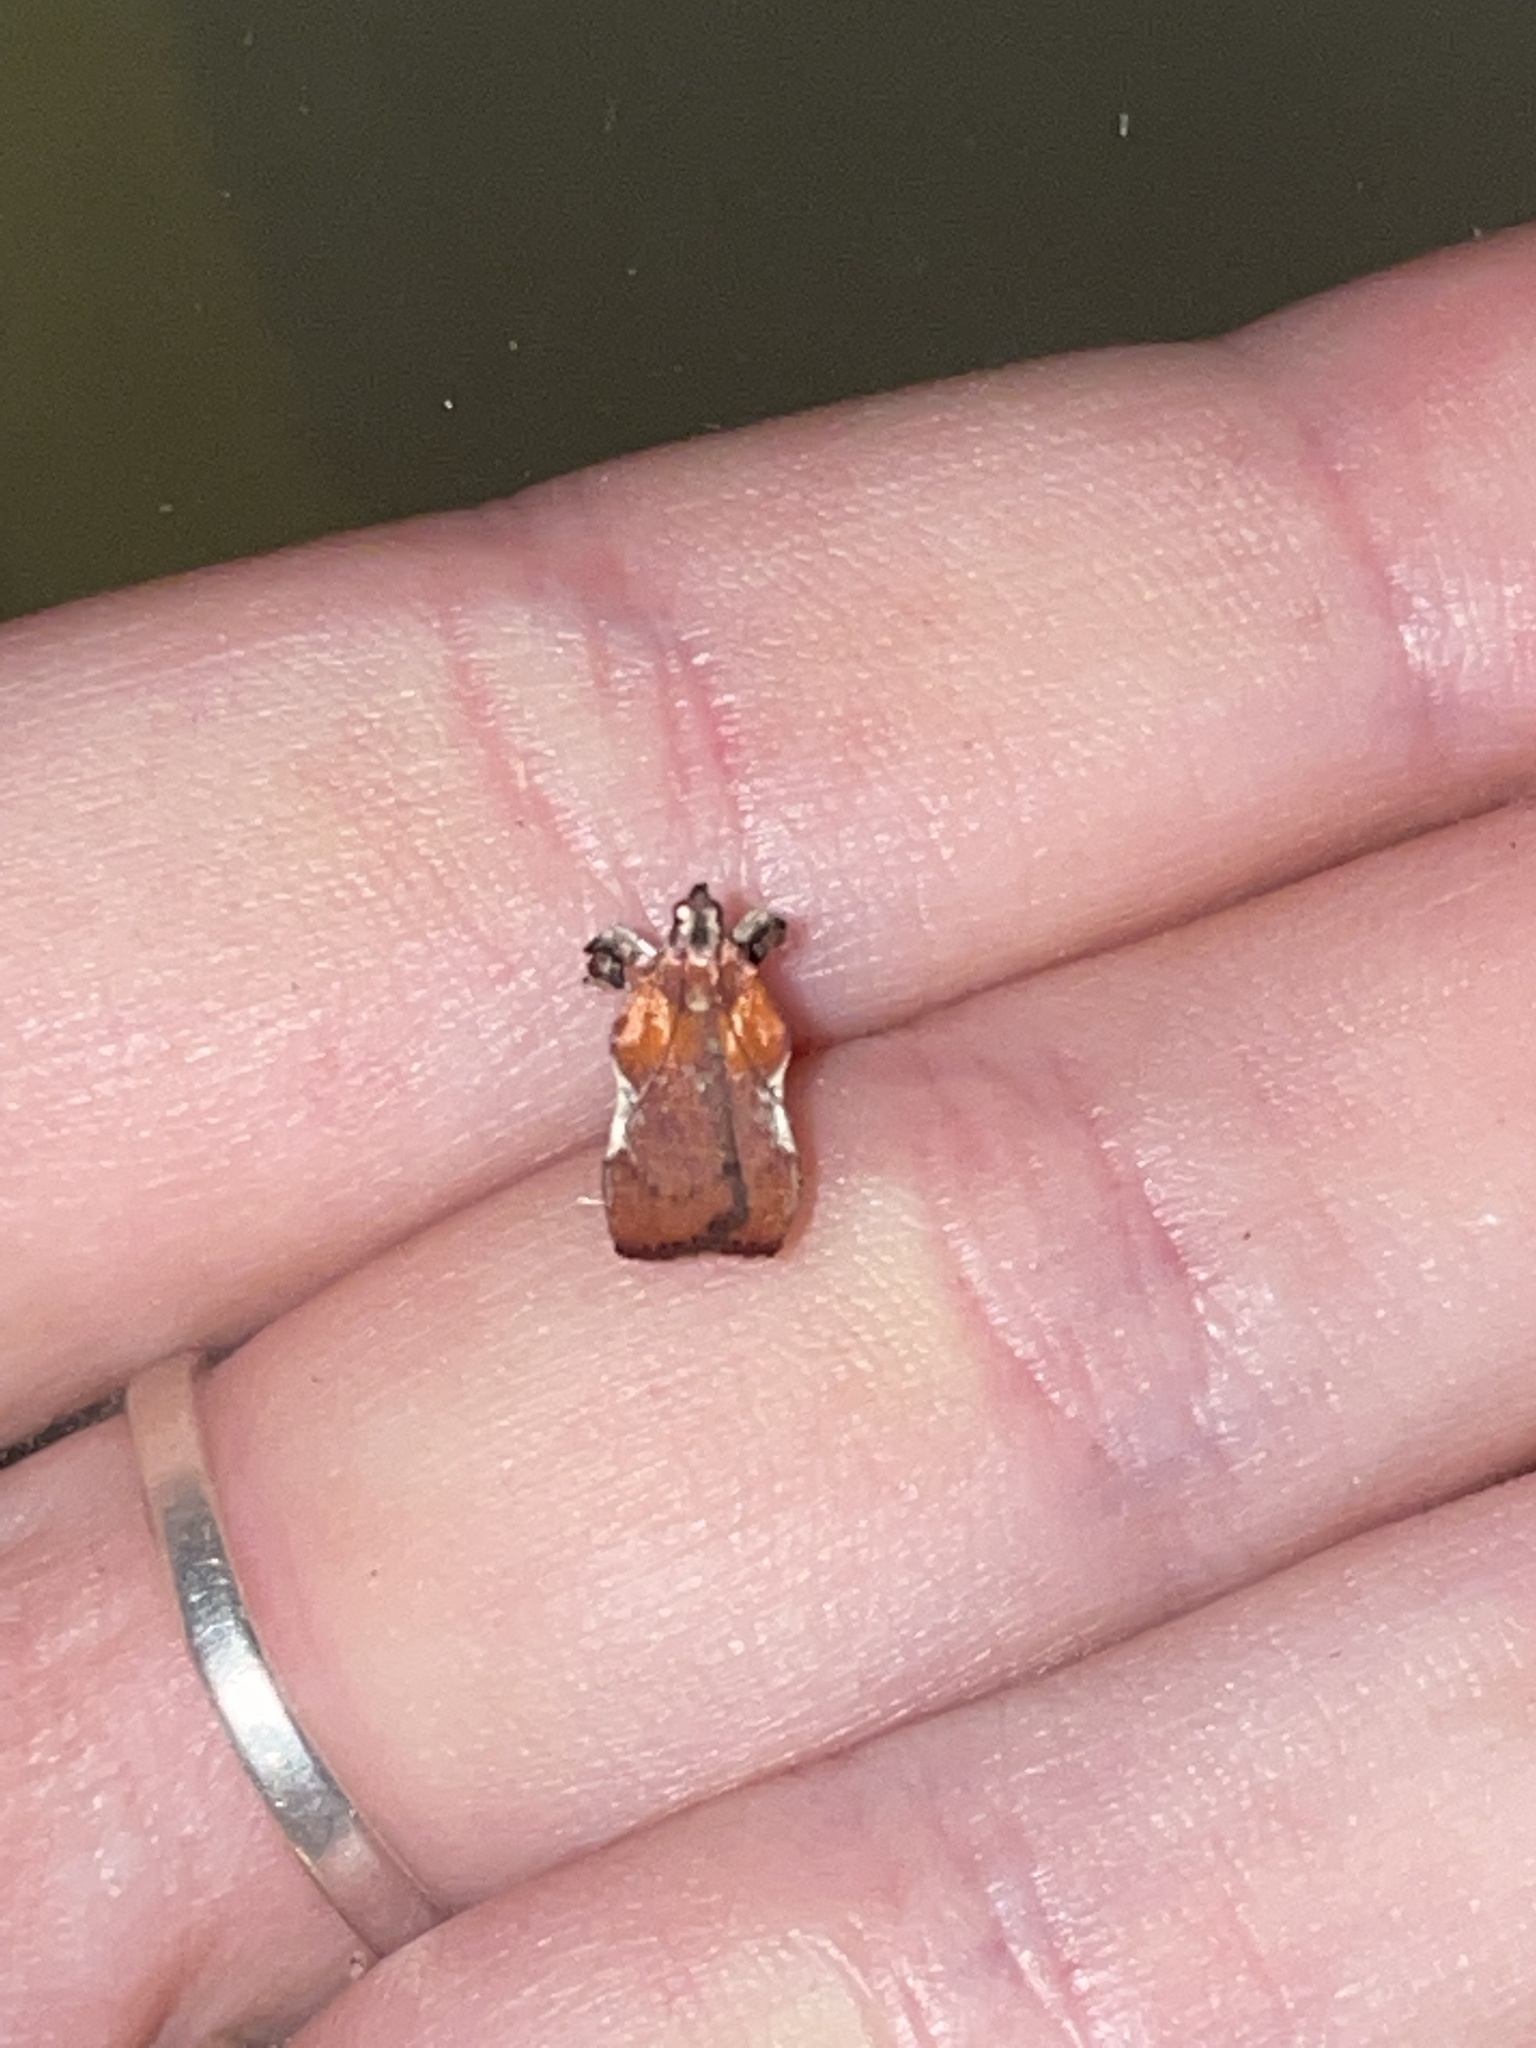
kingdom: Animalia
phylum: Arthropoda
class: Insecta
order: Lepidoptera
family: Pyralidae
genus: Galasa
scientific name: Galasa nigrinodis
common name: Boxwood leaftier moth
